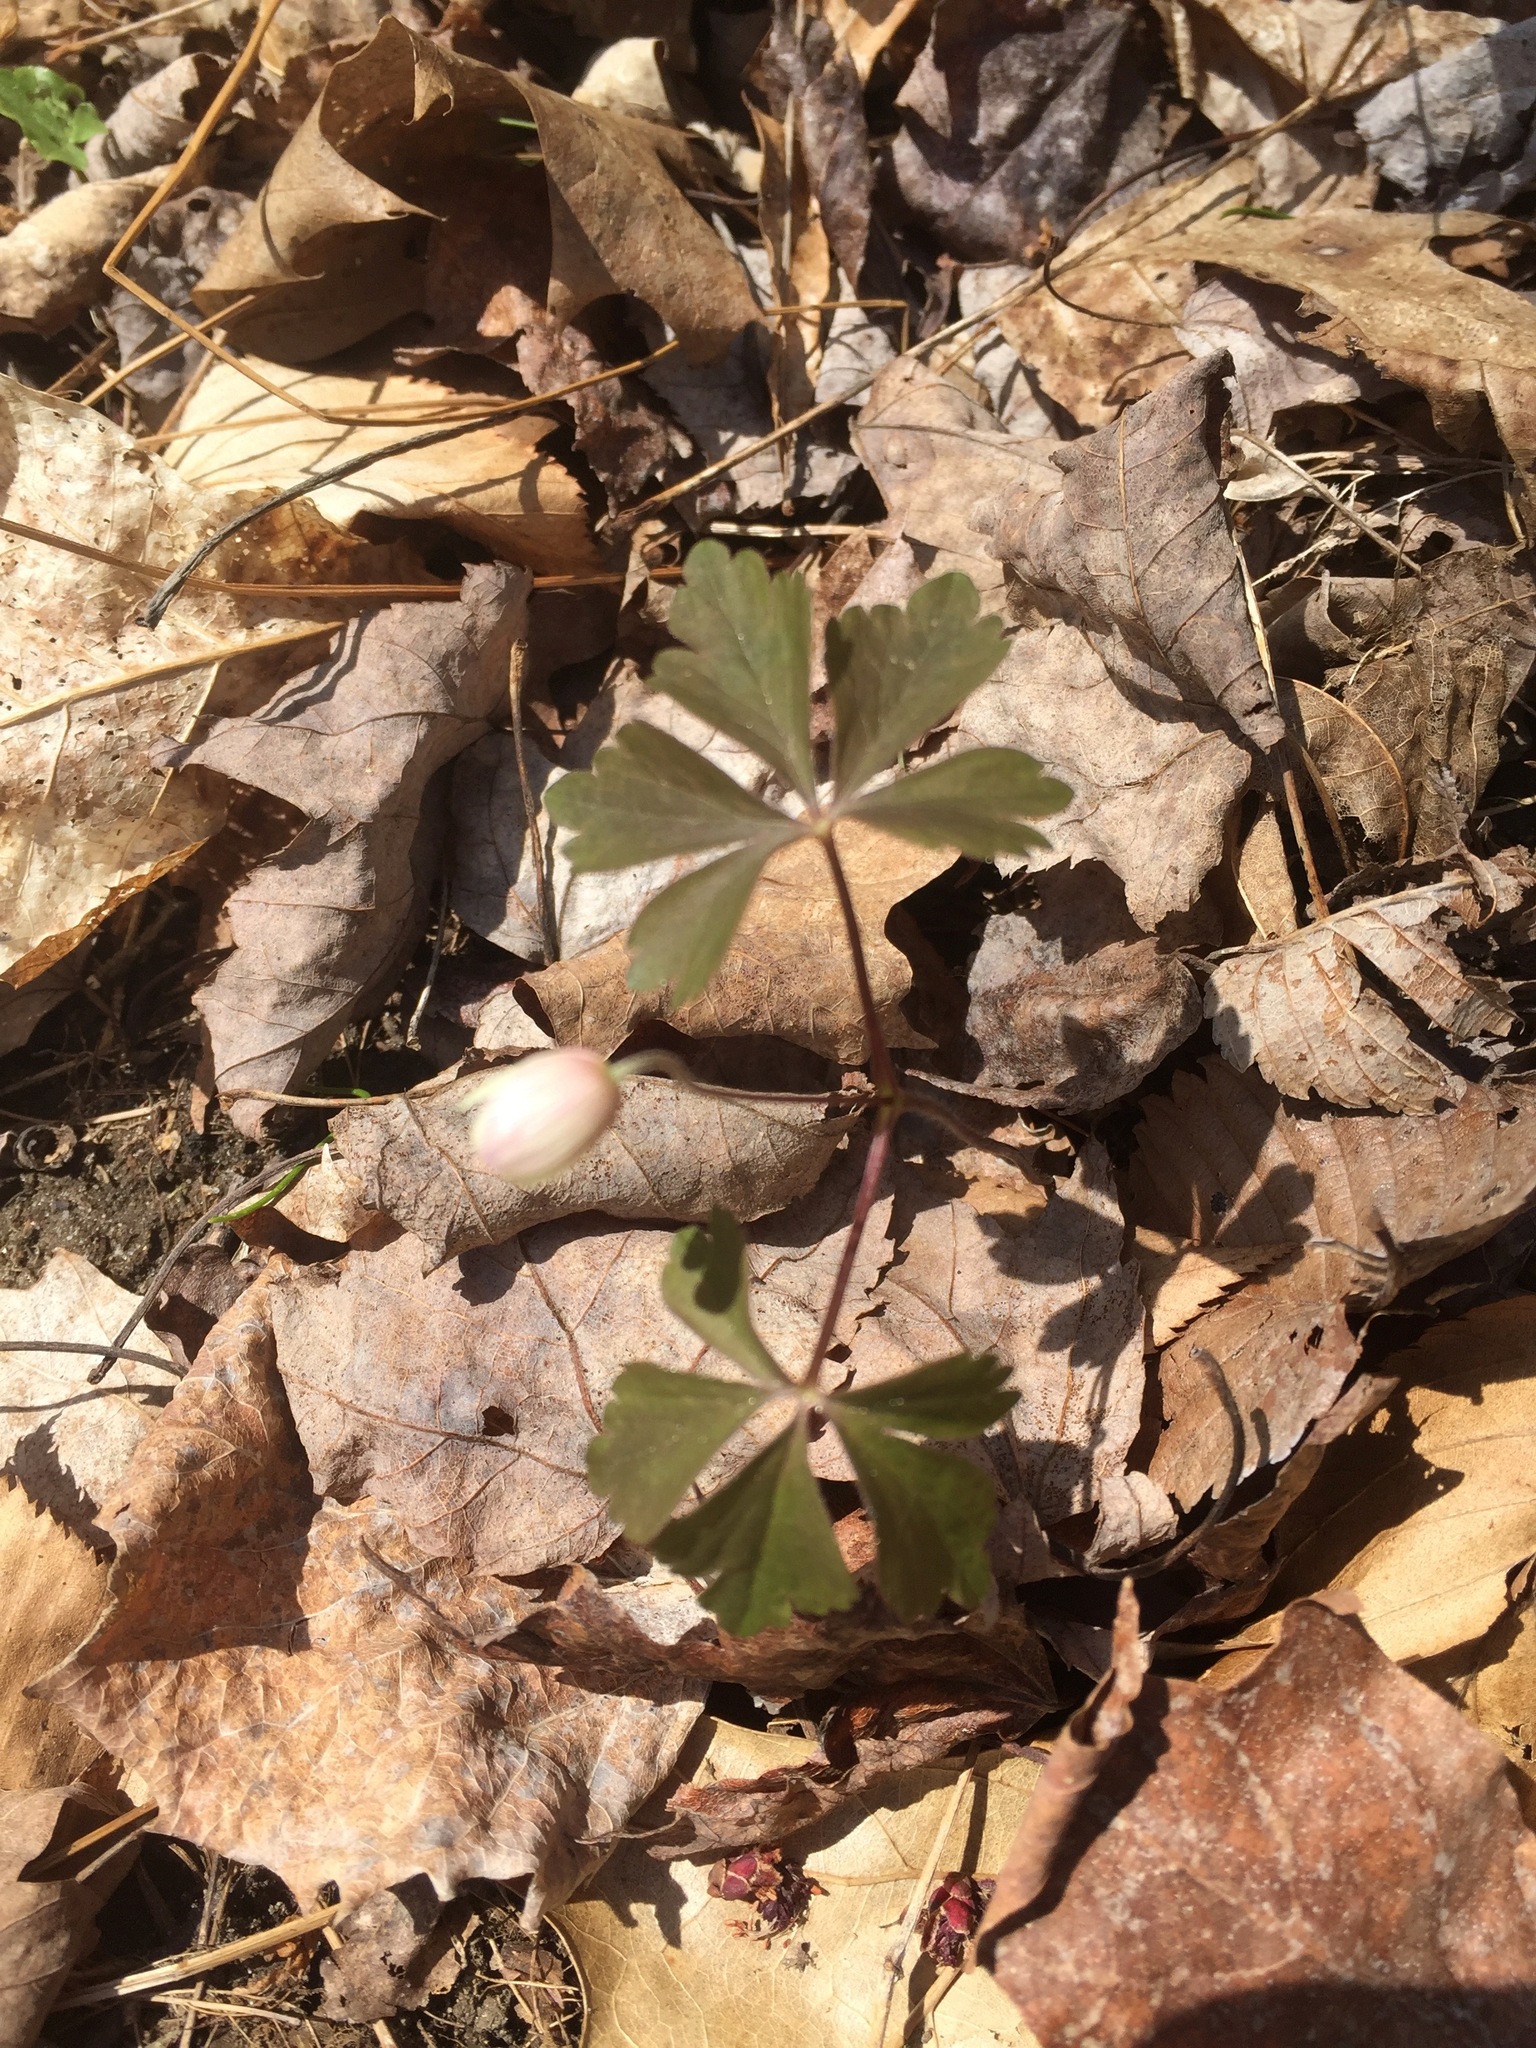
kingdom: Plantae
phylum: Tracheophyta
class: Magnoliopsida
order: Ranunculales
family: Ranunculaceae
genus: Anemone
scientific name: Anemone quinquefolia
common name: Wood anemone
